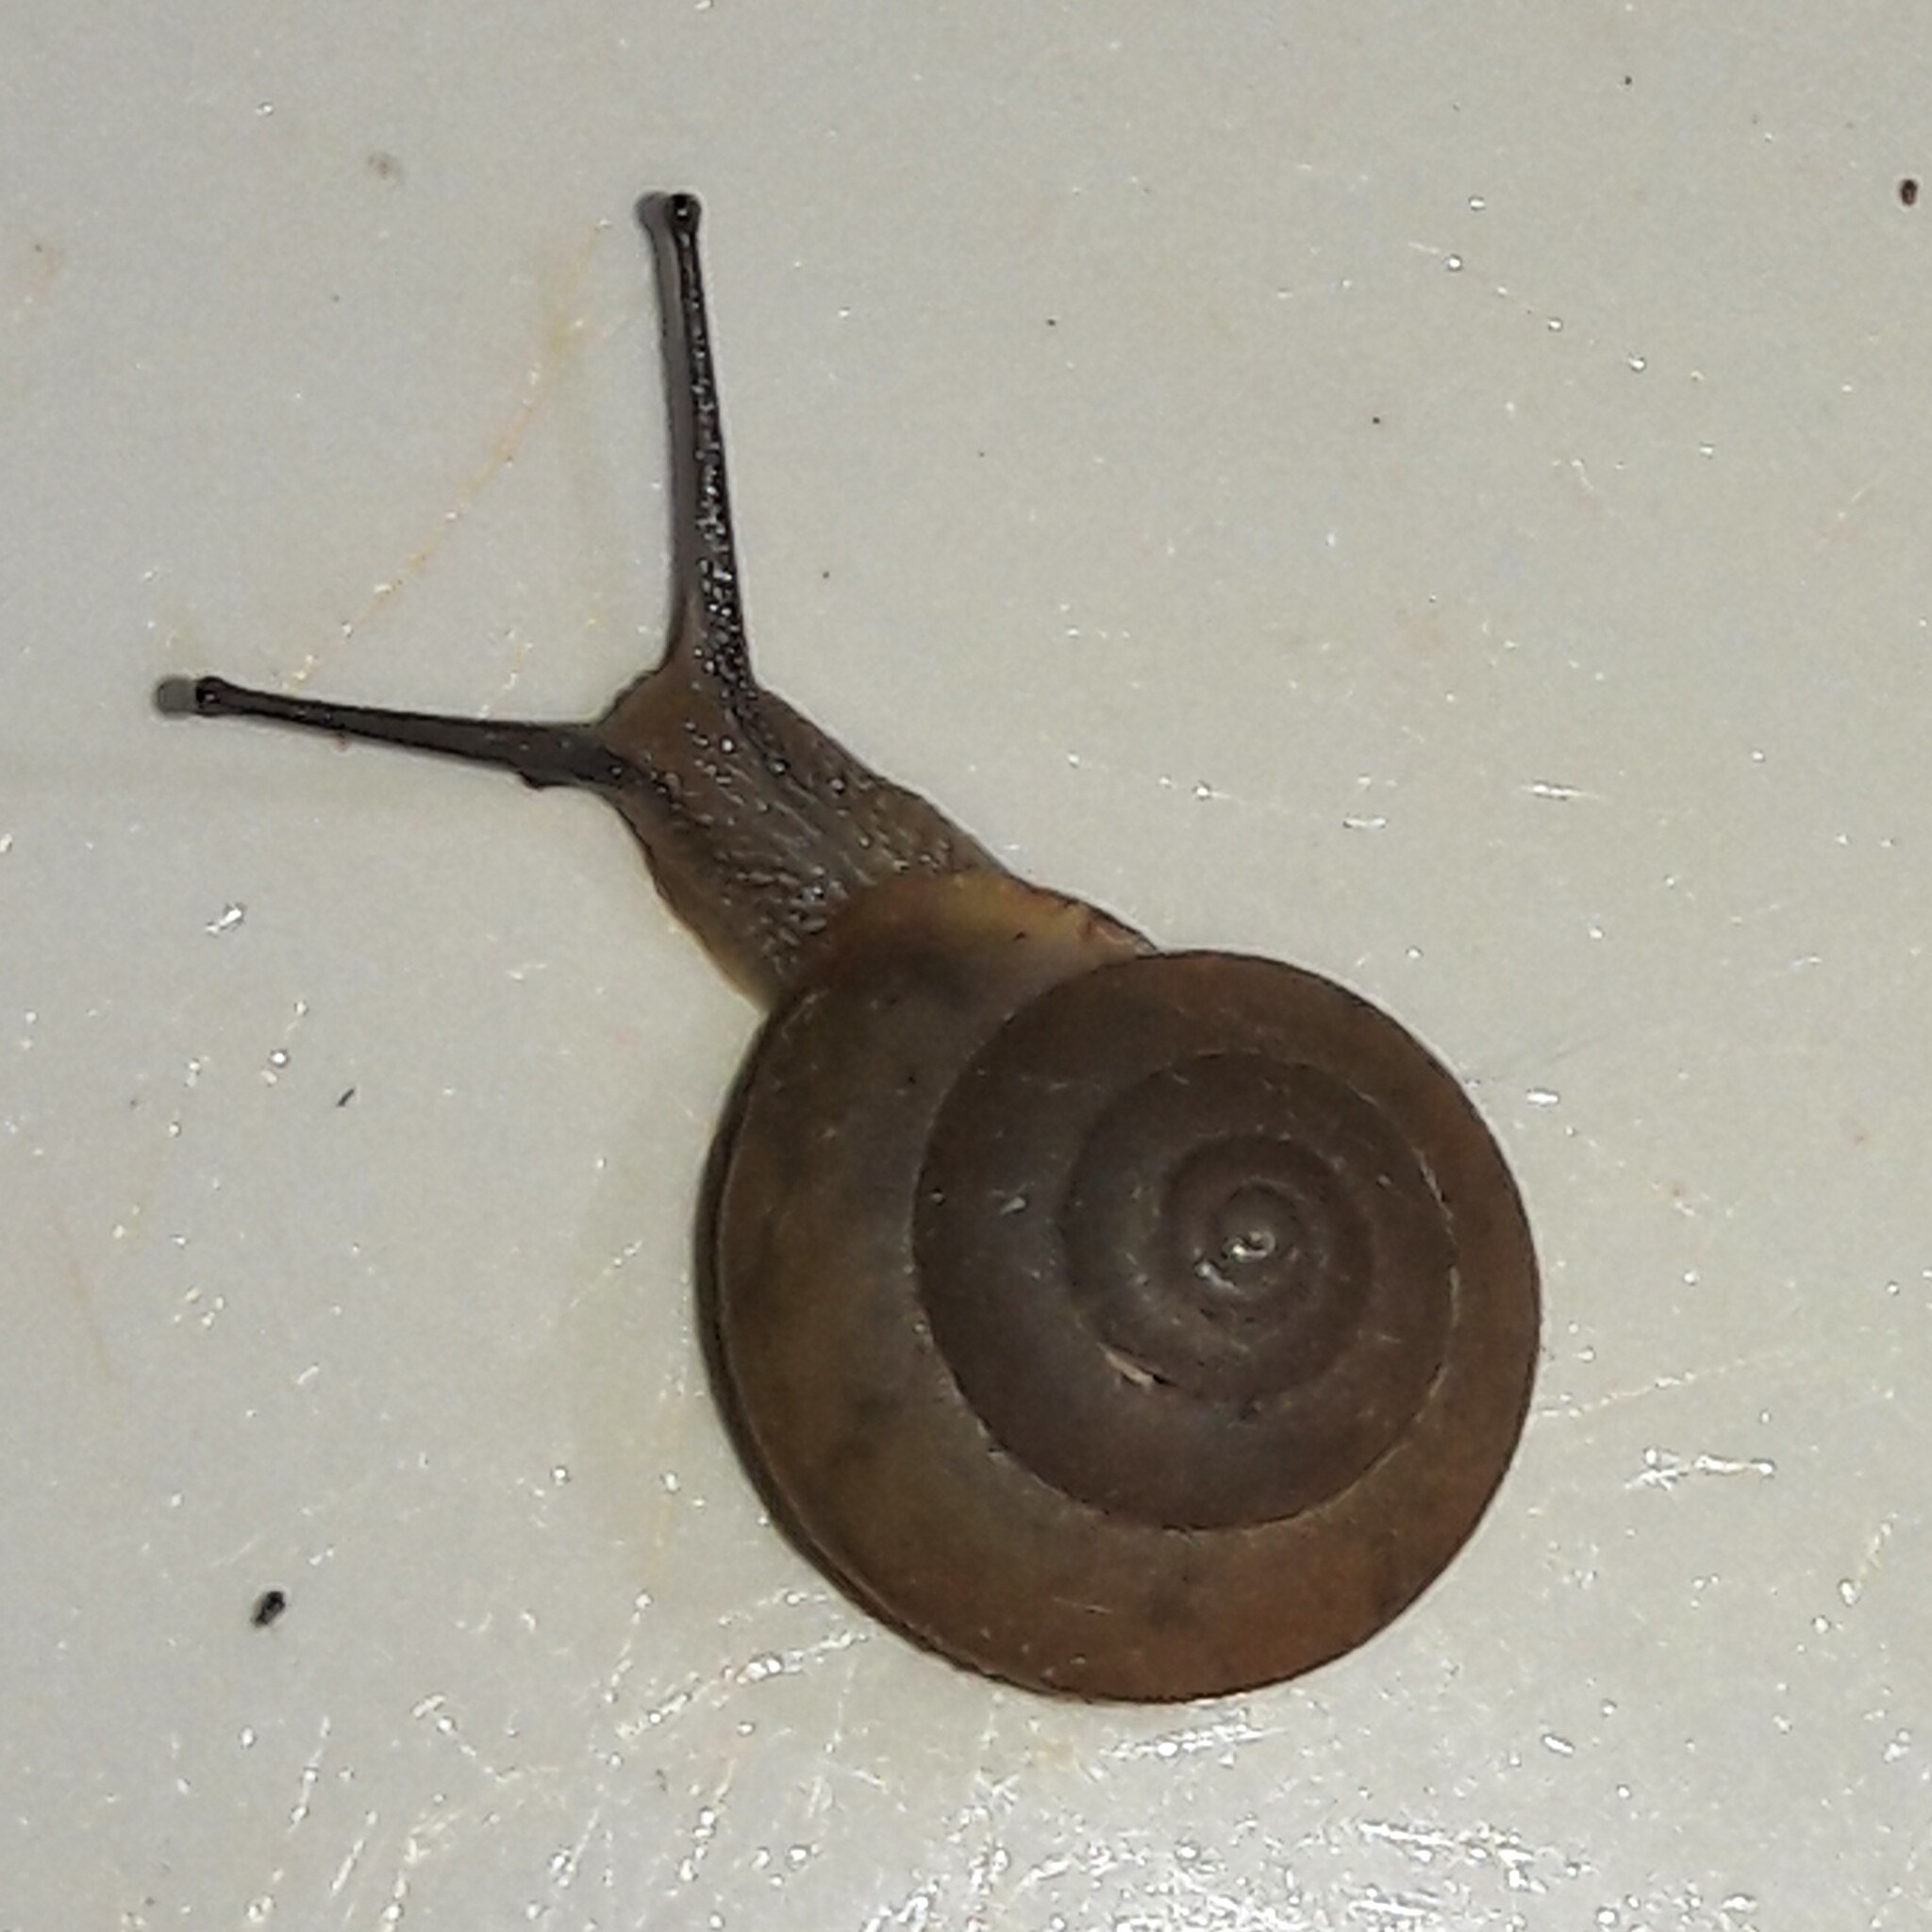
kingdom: Animalia
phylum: Mollusca
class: Gastropoda
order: Stylommatophora
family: Camaenidae
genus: Bradybaena
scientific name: Bradybaena similaris
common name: Asian trampsnail
